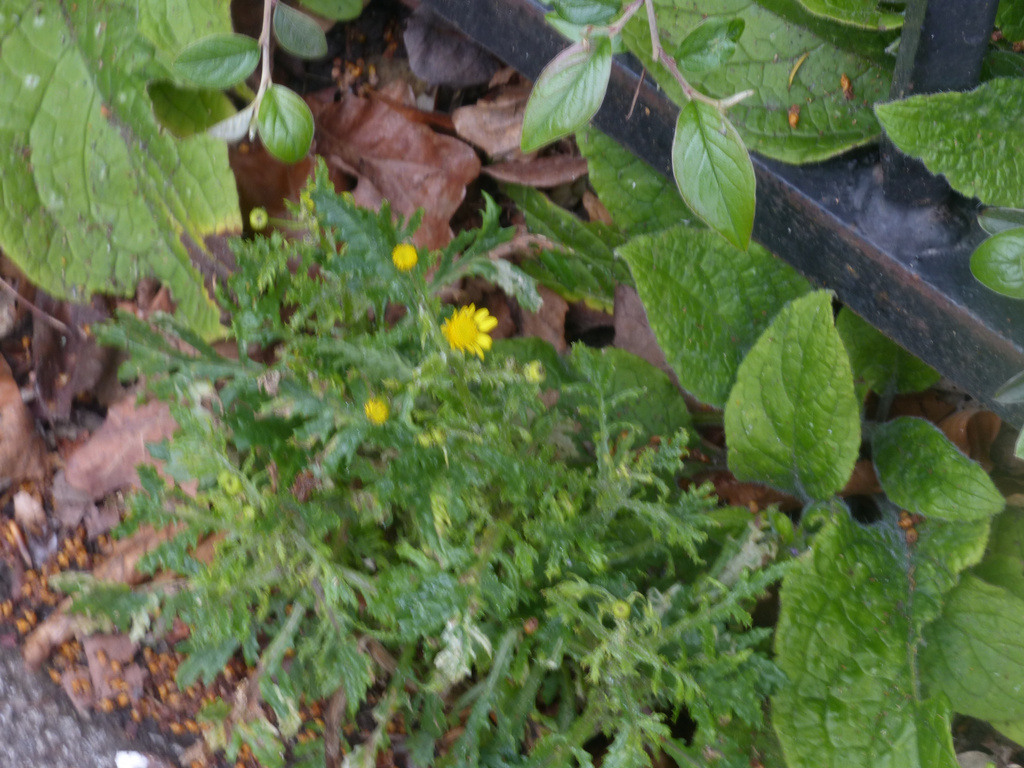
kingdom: Plantae
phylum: Tracheophyta
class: Magnoliopsida
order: Asterales
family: Asteraceae
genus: Senecio
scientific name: Senecio squalidus
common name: Oxford ragwort
